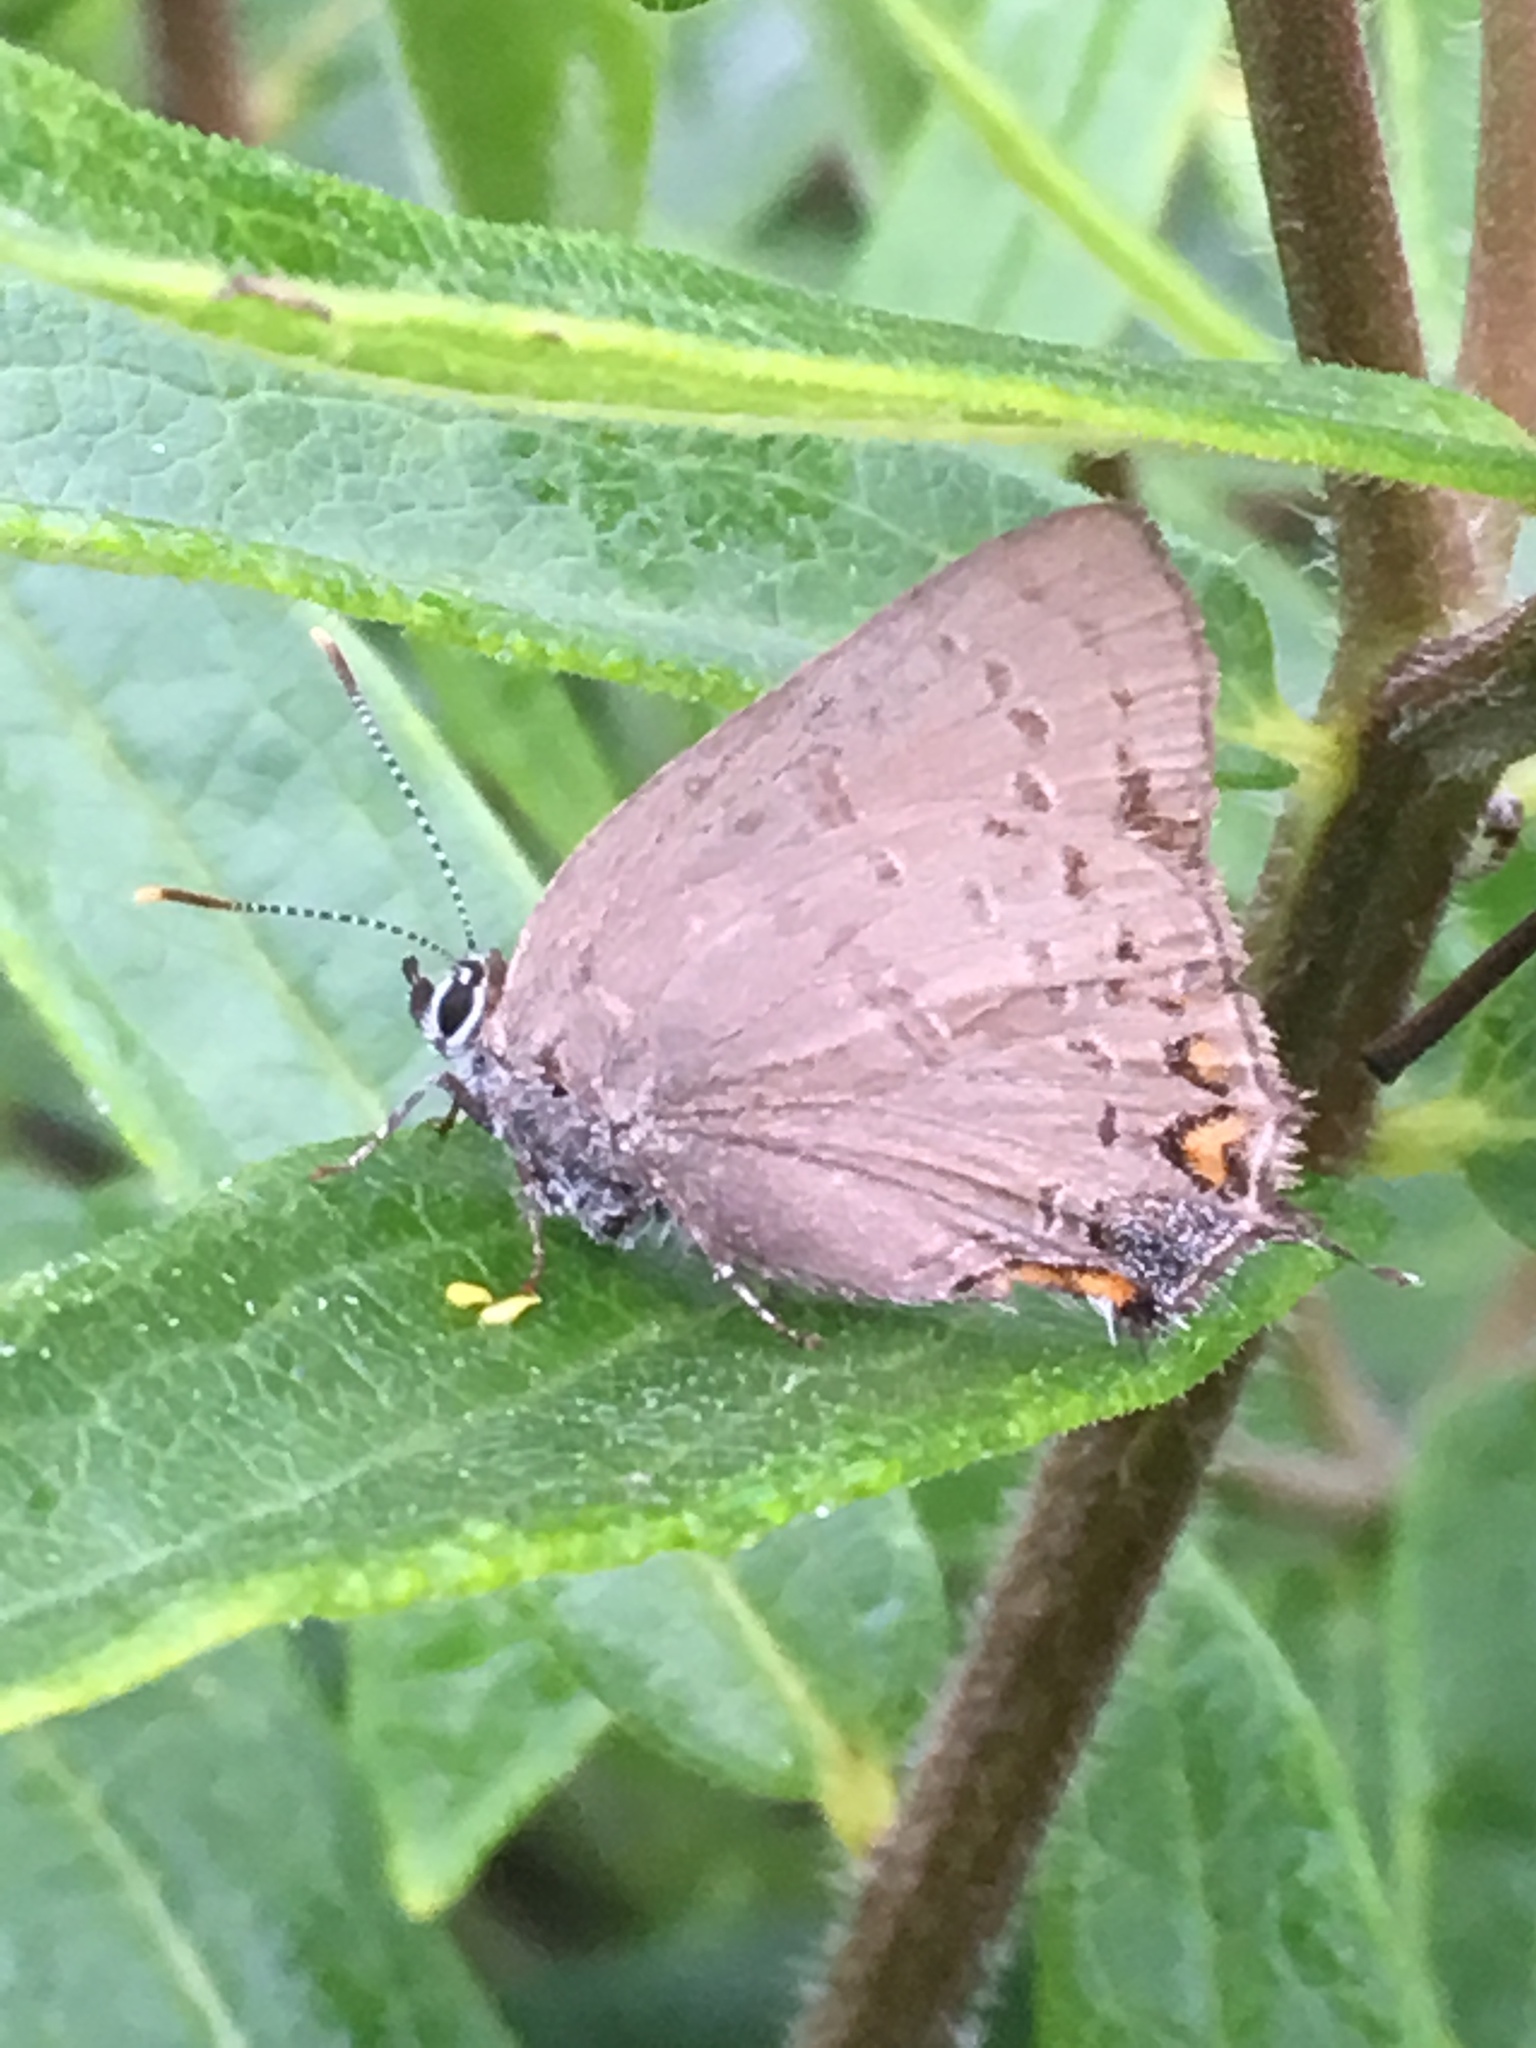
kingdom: Animalia
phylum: Arthropoda
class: Insecta
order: Lepidoptera
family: Lycaenidae
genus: Satyrium
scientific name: Satyrium edwardsii
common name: Edwards' hairstreak
